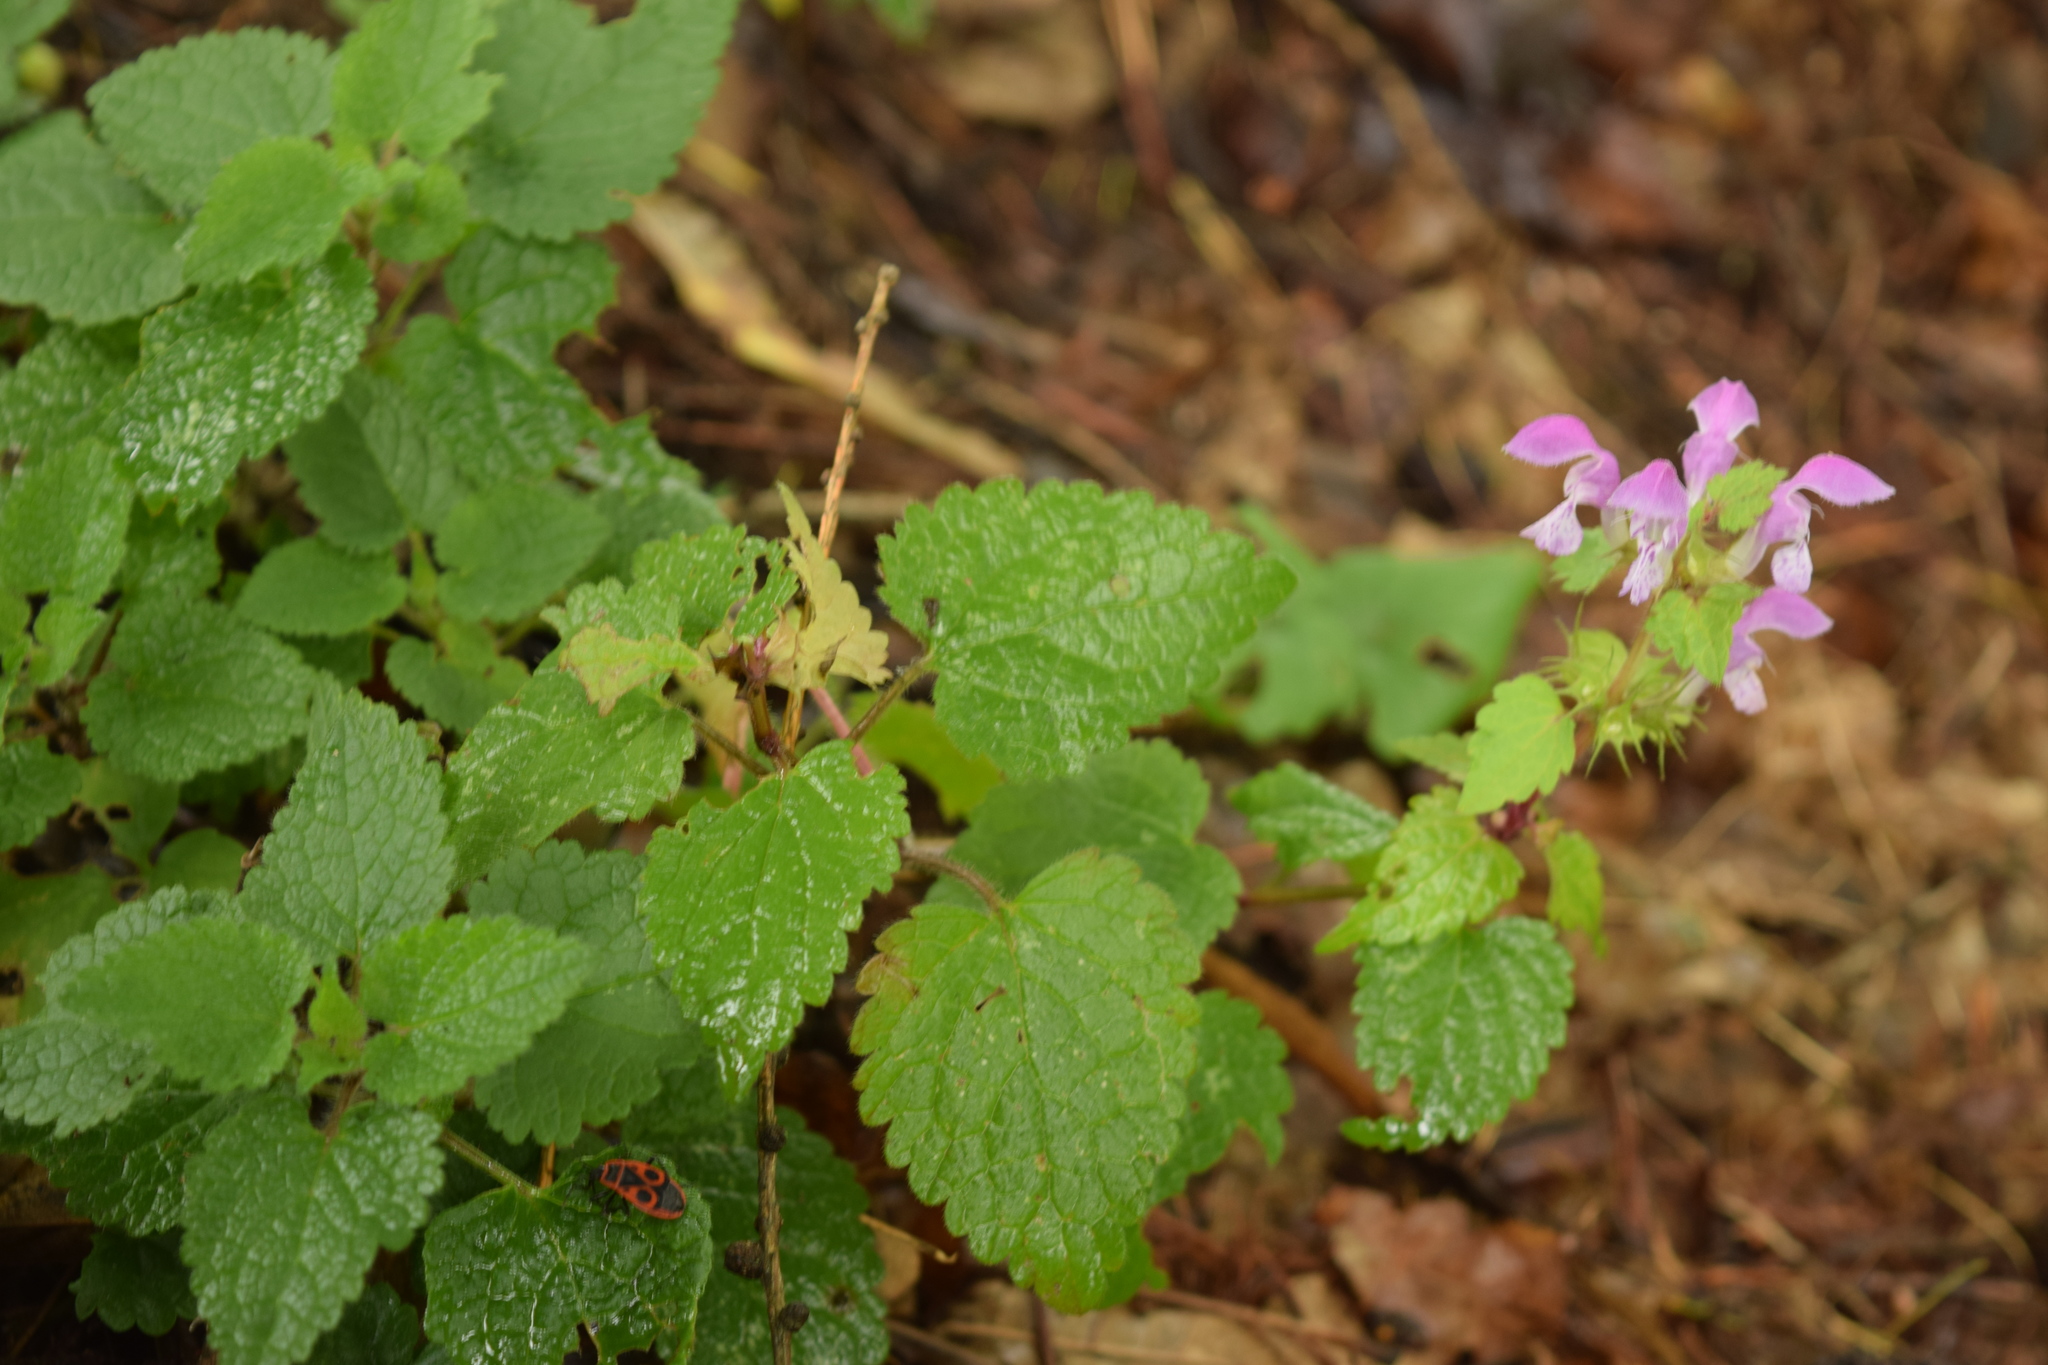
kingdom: Plantae
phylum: Tracheophyta
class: Magnoliopsida
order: Lamiales
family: Lamiaceae
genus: Lamium
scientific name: Lamium maculatum
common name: Spotted dead-nettle
